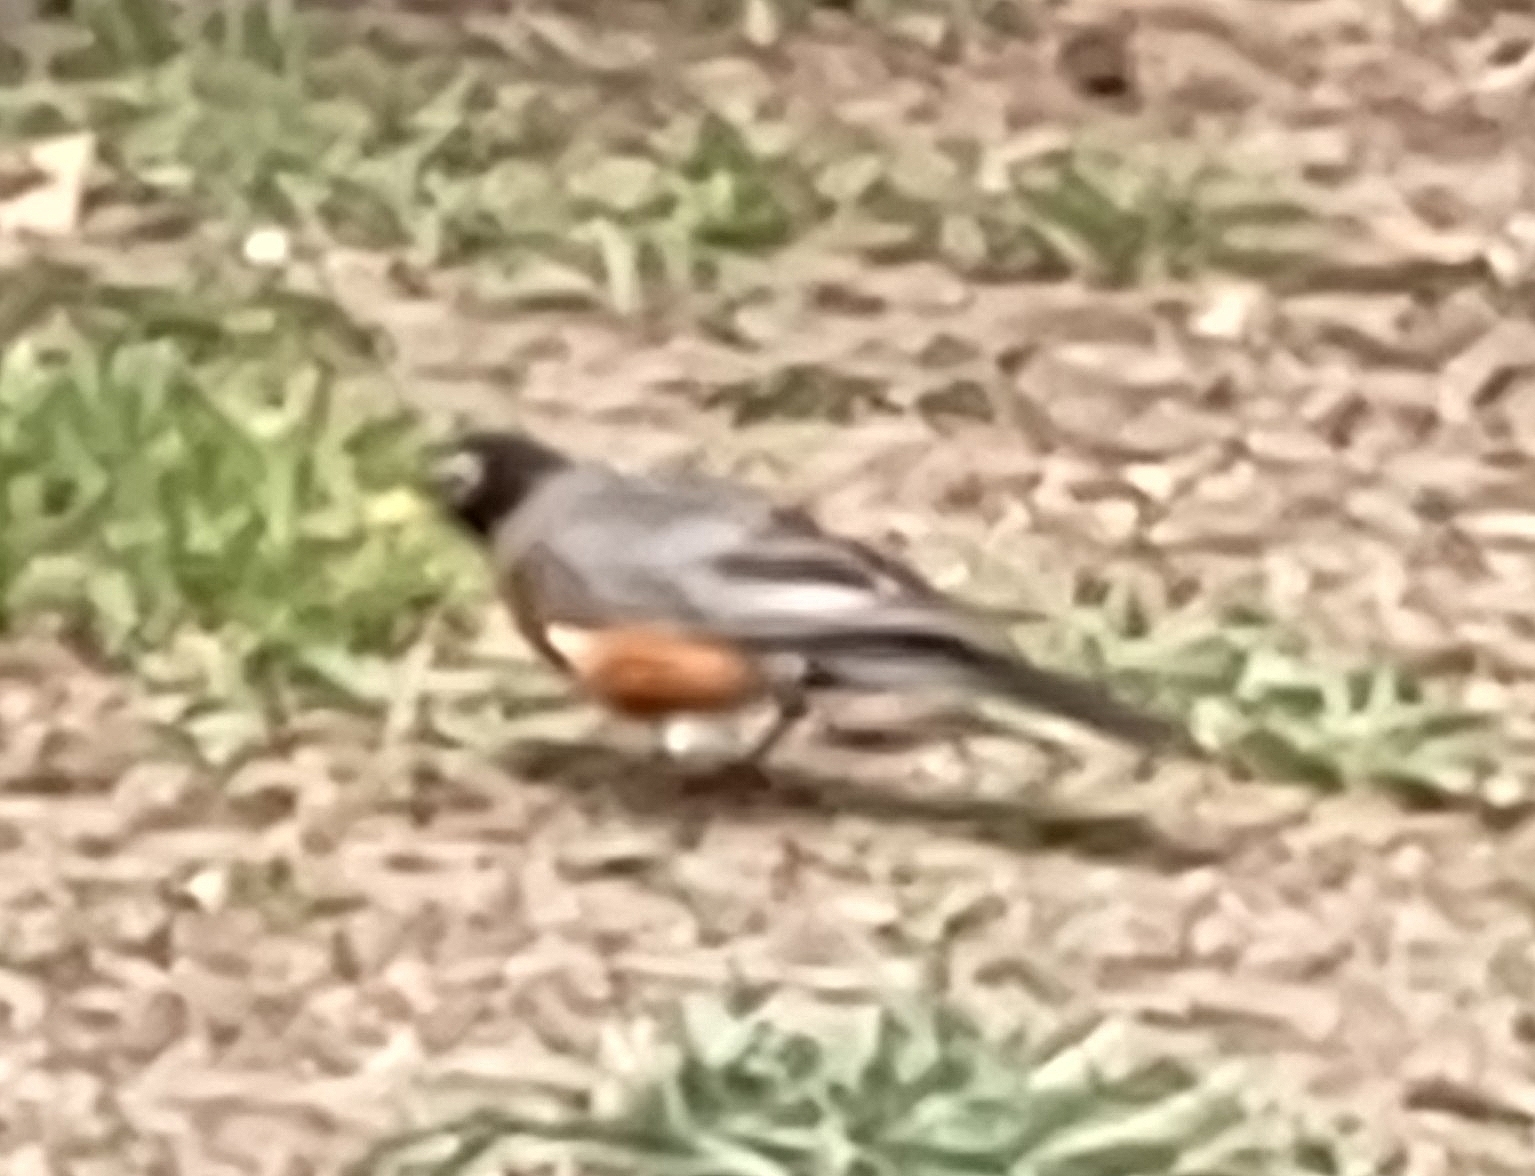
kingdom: Animalia
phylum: Chordata
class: Aves
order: Passeriformes
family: Turdidae
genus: Turdus
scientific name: Turdus migratorius
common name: American robin
